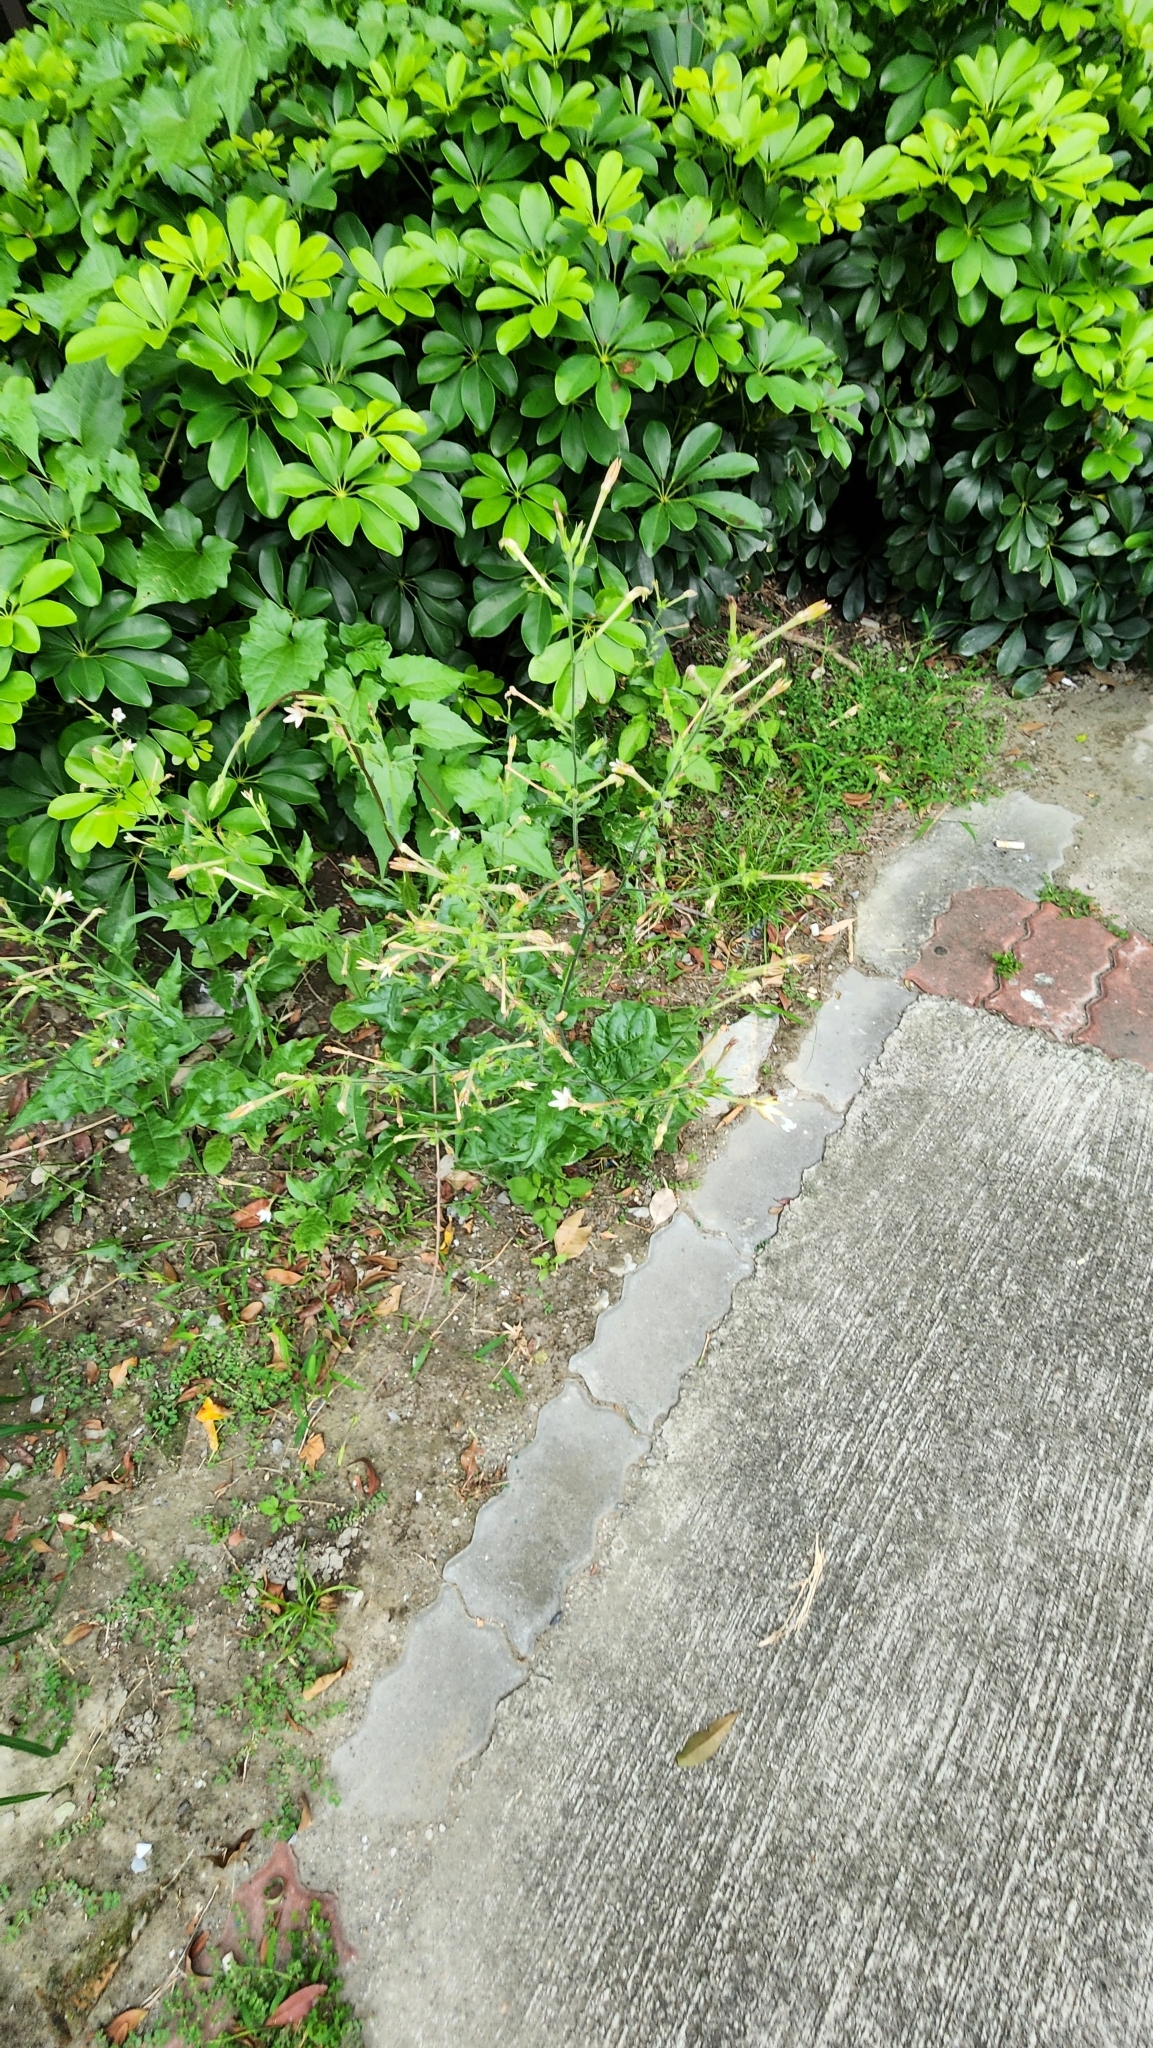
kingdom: Plantae
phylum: Tracheophyta
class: Magnoliopsida
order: Solanales
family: Solanaceae
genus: Nicotiana
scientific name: Nicotiana plumbaginifolia
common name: Tex-mex tobacco
